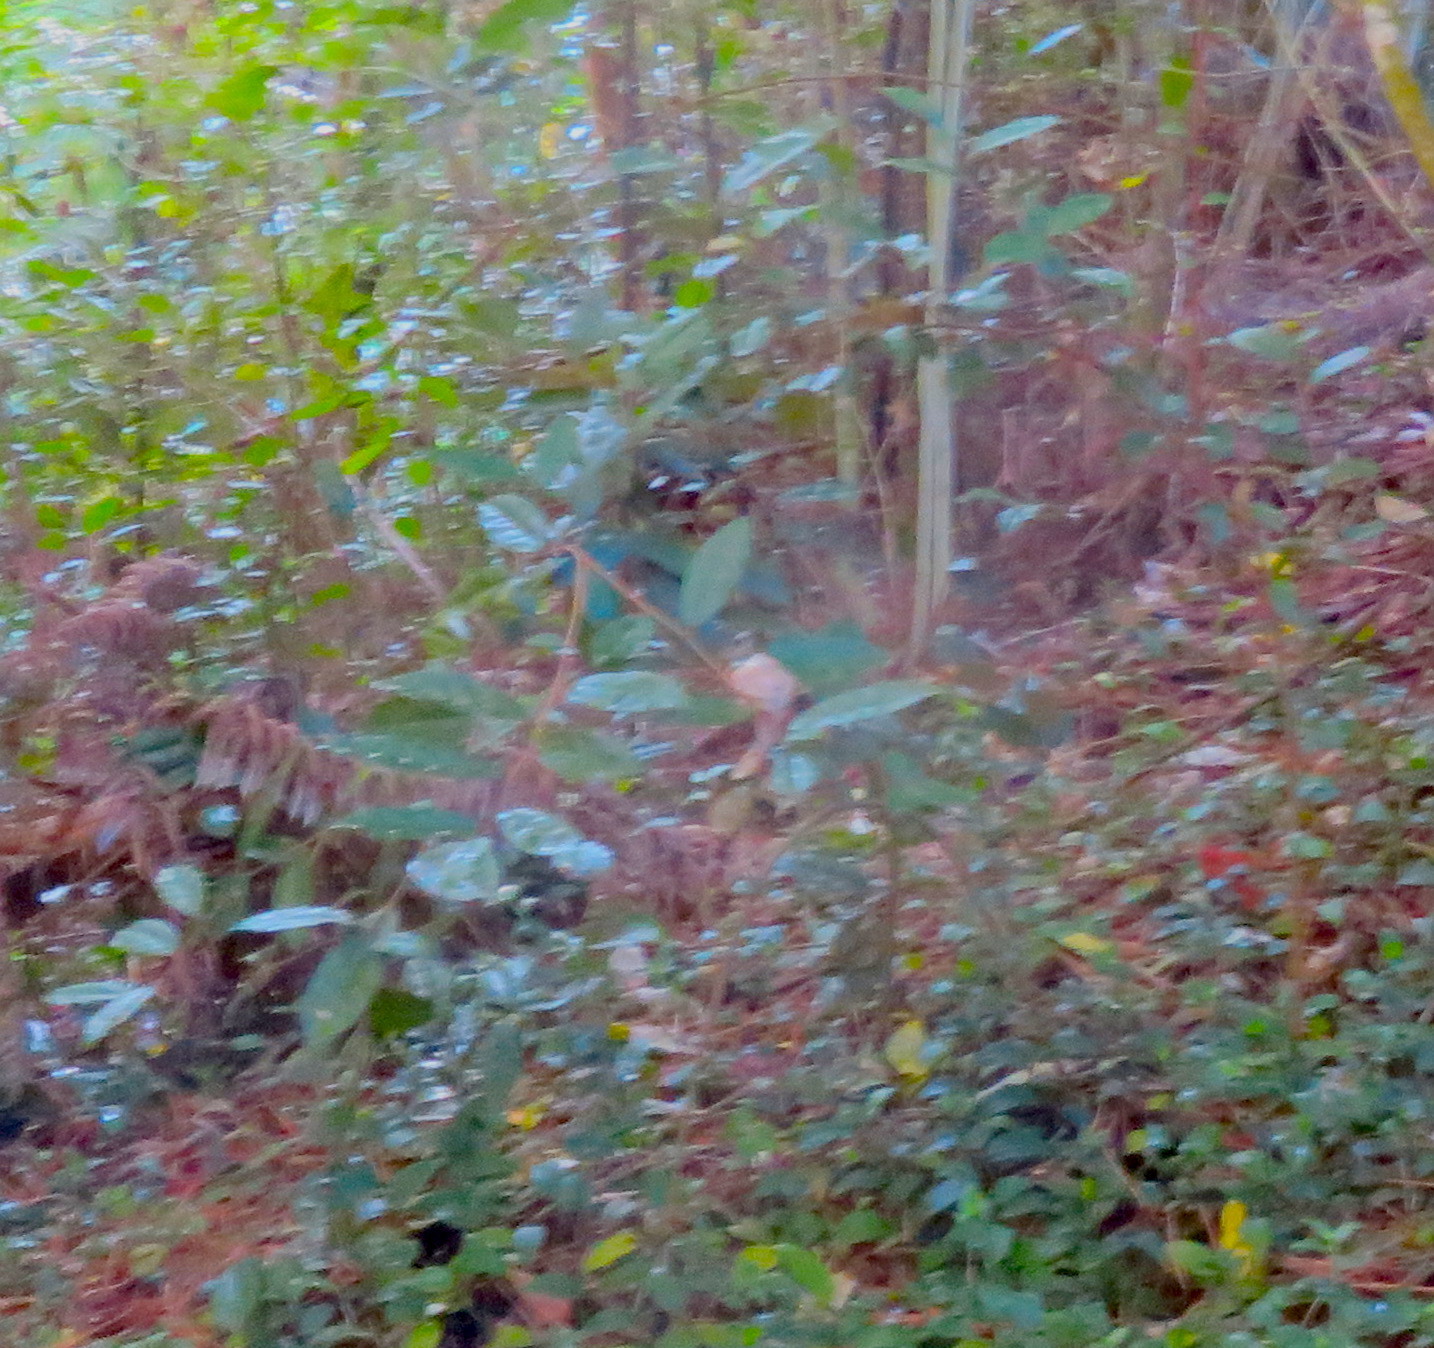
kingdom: Plantae
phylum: Tracheophyta
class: Magnoliopsida
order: Rosales
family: Elaeagnaceae
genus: Elaeagnus
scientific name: Elaeagnus reflexa
